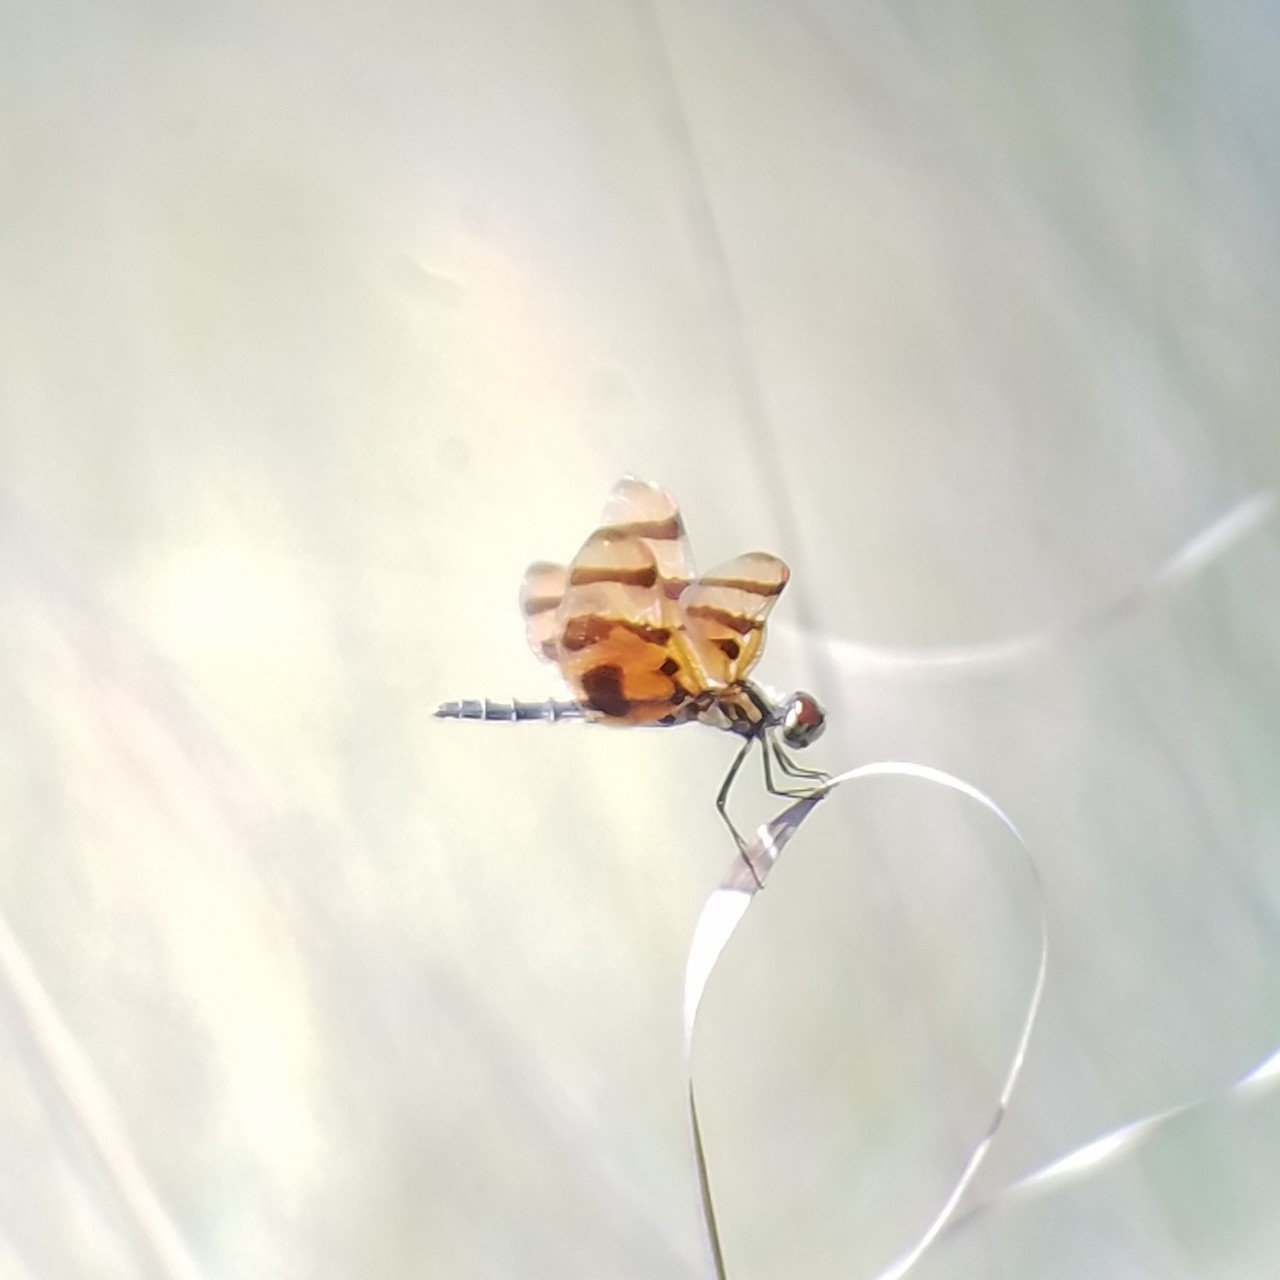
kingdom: Animalia
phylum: Arthropoda
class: Insecta
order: Odonata
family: Libellulidae
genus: Celithemis
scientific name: Celithemis eponina
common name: Halloween pennant
